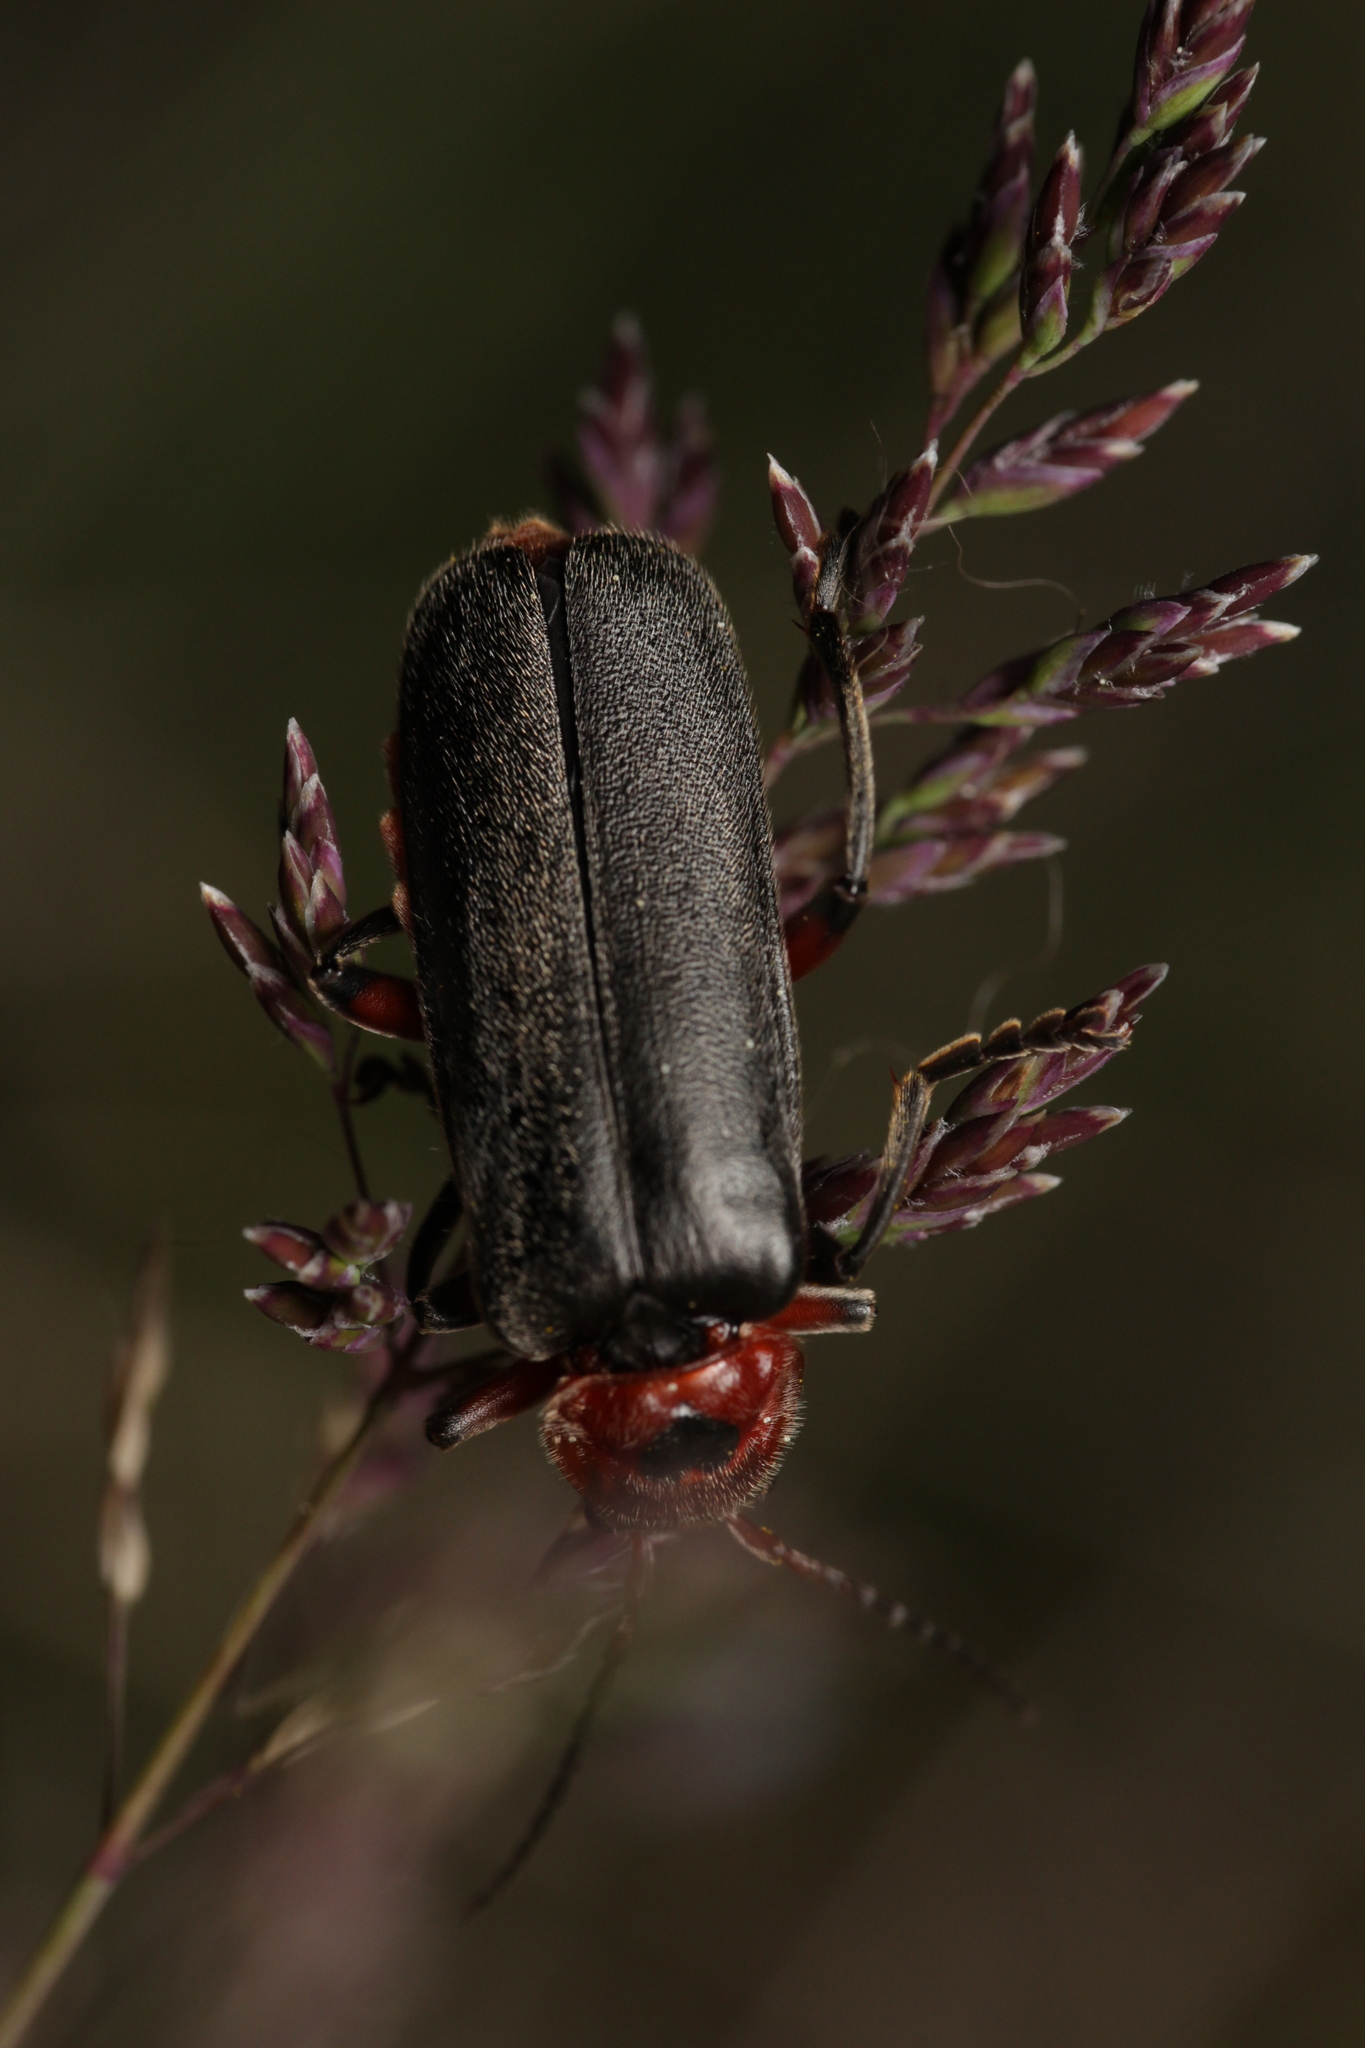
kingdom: Animalia
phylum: Arthropoda
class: Insecta
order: Coleoptera
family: Cantharidae
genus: Cantharis
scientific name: Cantharis rustica
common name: Soldier beetle
